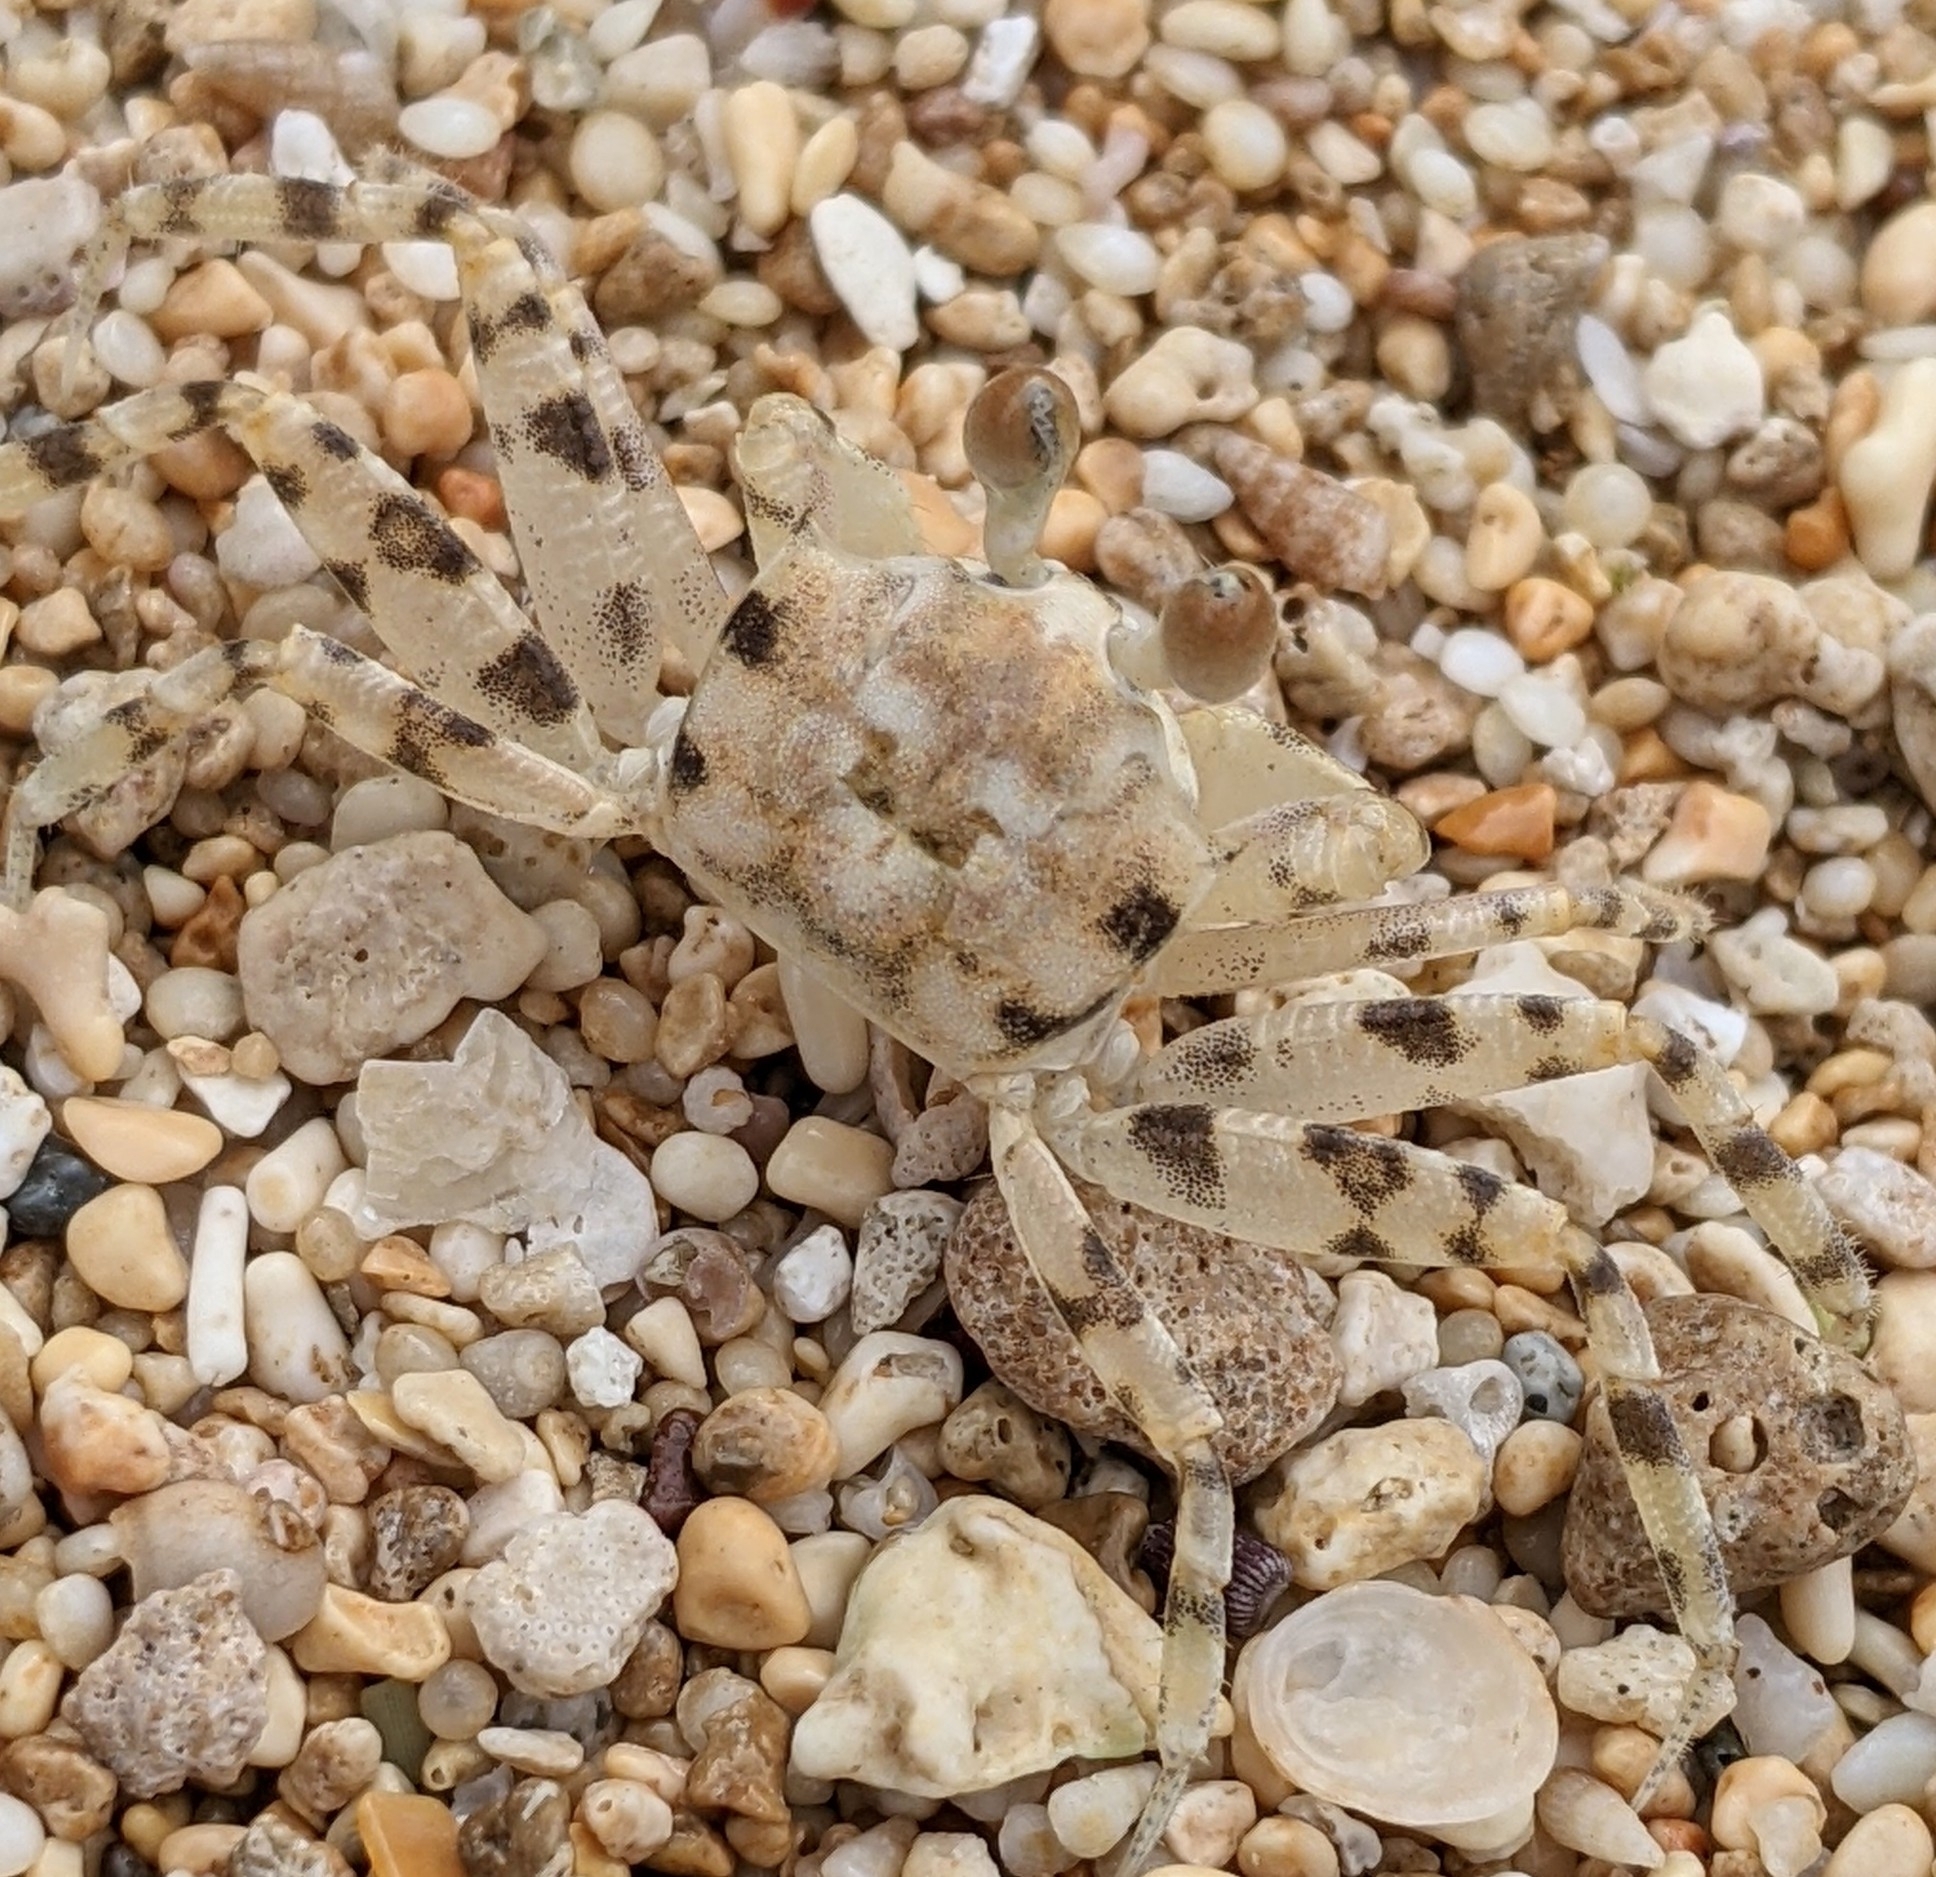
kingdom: Animalia
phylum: Arthropoda
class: Malacostraca
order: Decapoda
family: Ocypodidae
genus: Ocypode
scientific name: Ocypode pallidula
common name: Pallid ghost crab
